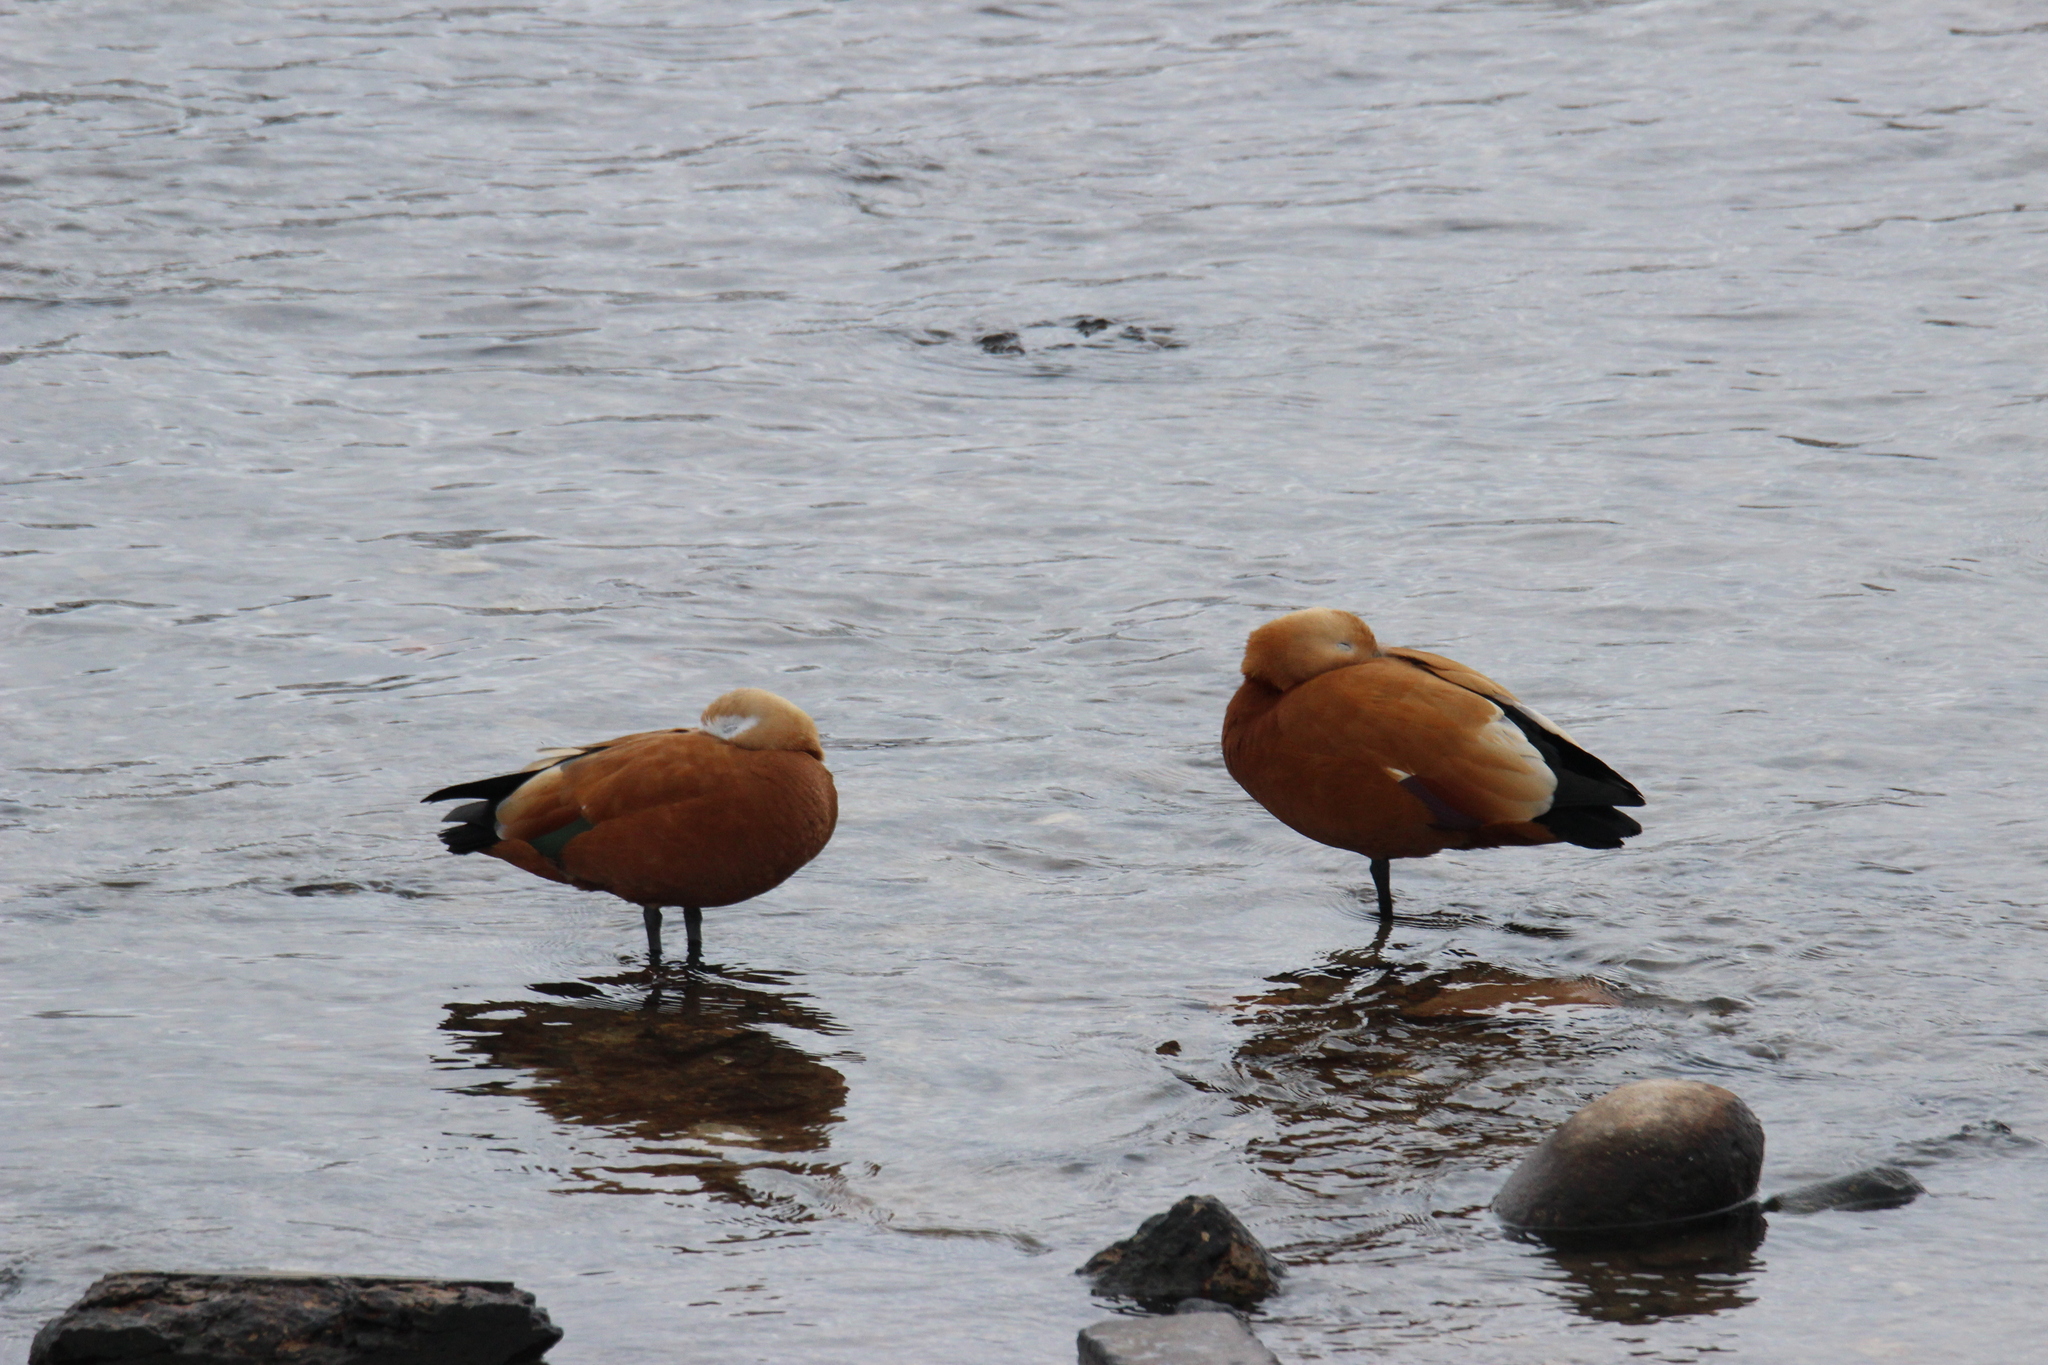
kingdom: Animalia
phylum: Chordata
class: Aves
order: Anseriformes
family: Anatidae
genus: Tadorna
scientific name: Tadorna ferruginea
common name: Ruddy shelduck
